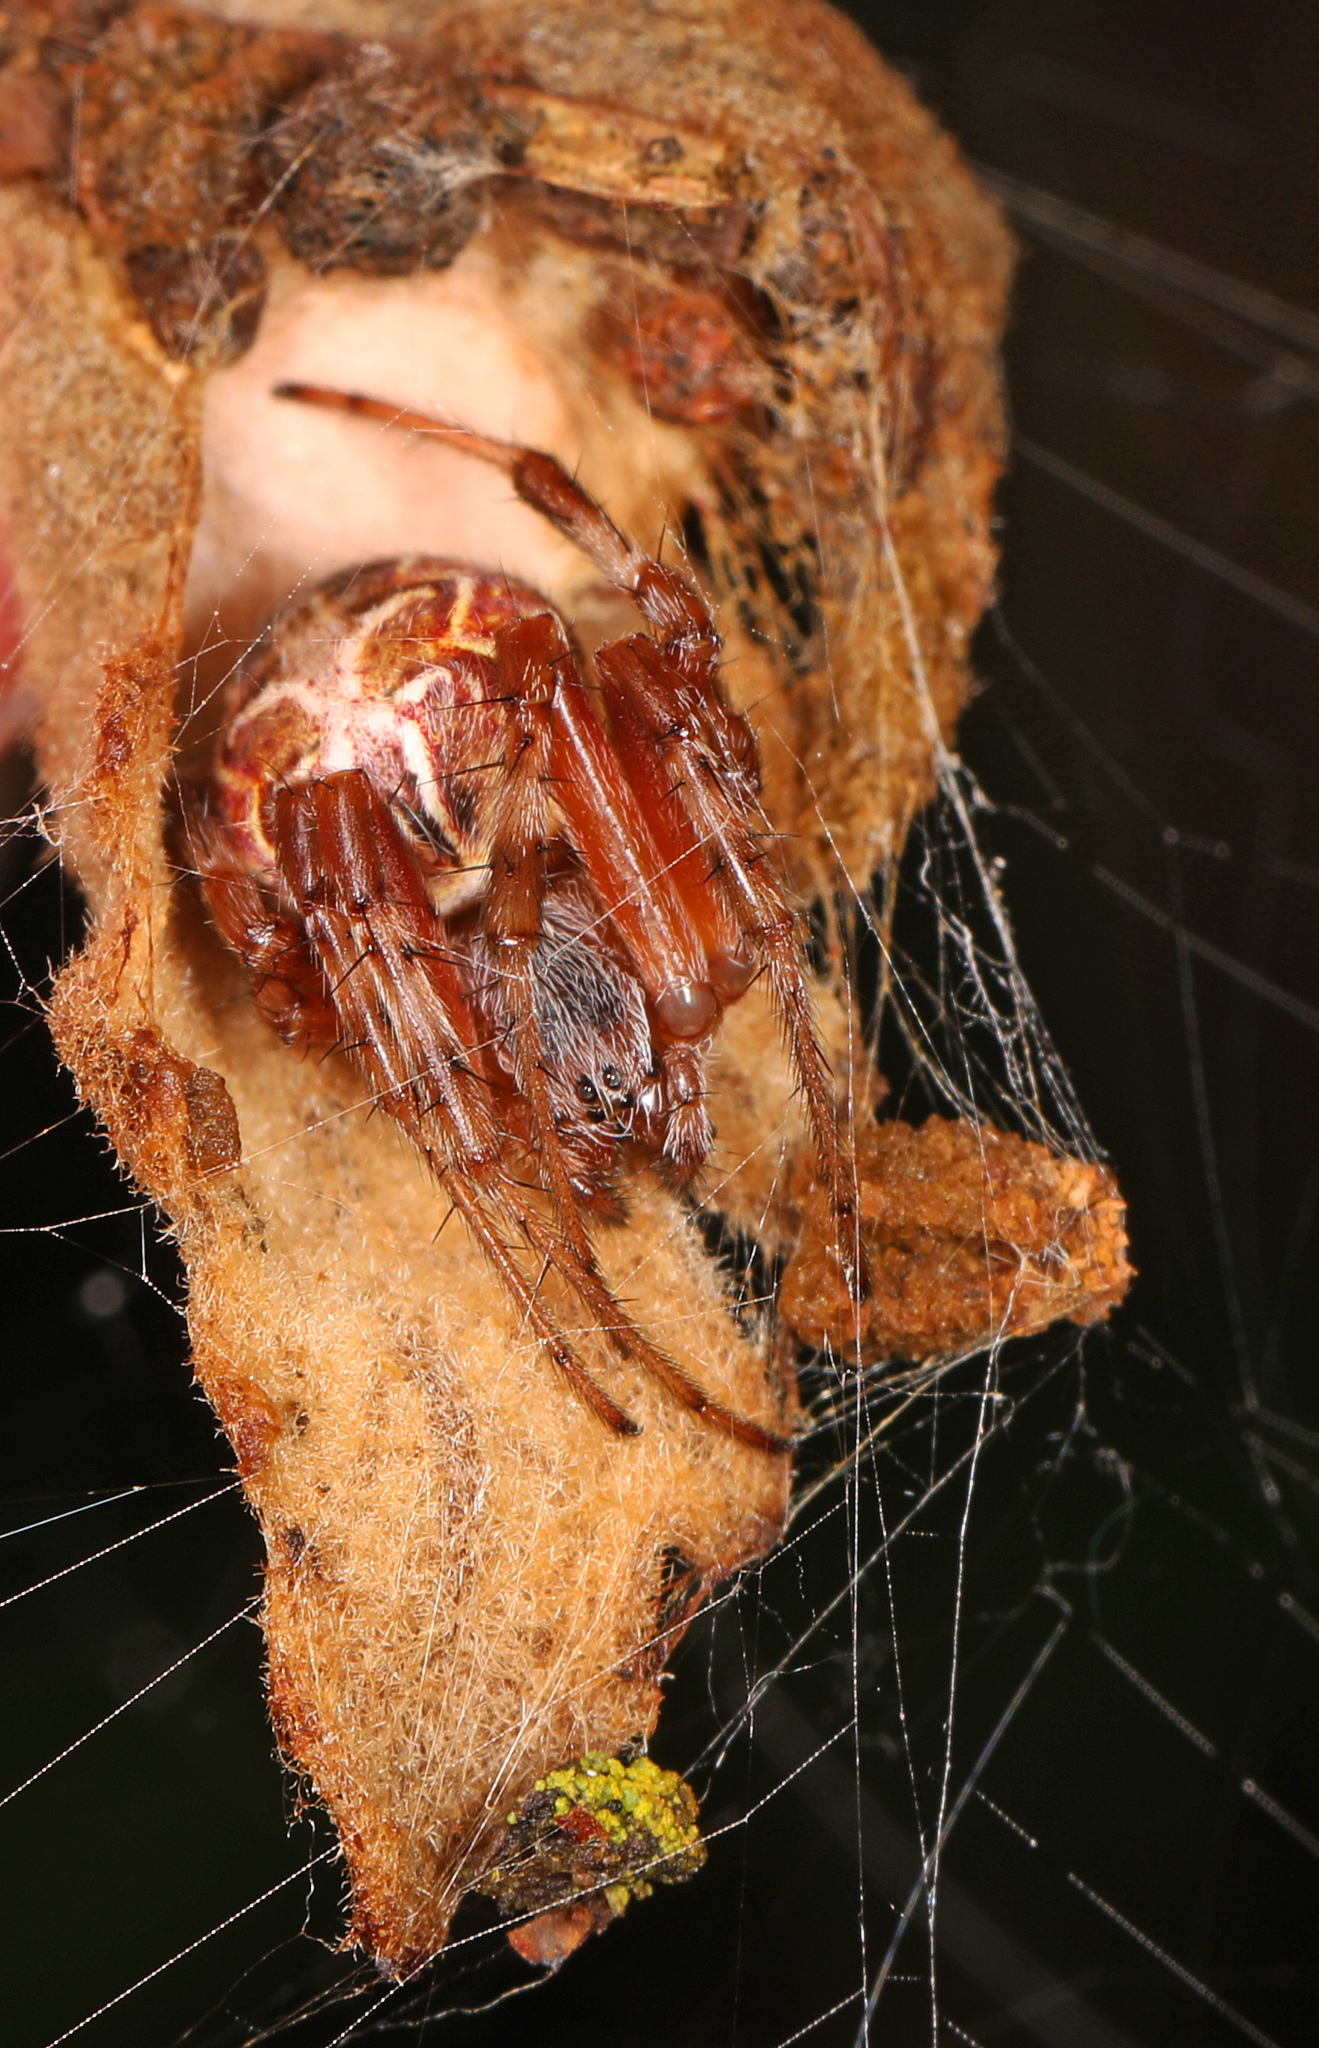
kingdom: Animalia
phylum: Arthropoda
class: Arachnida
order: Araneae
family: Araneidae
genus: Metepeira
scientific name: Metepeira labyrinthea
